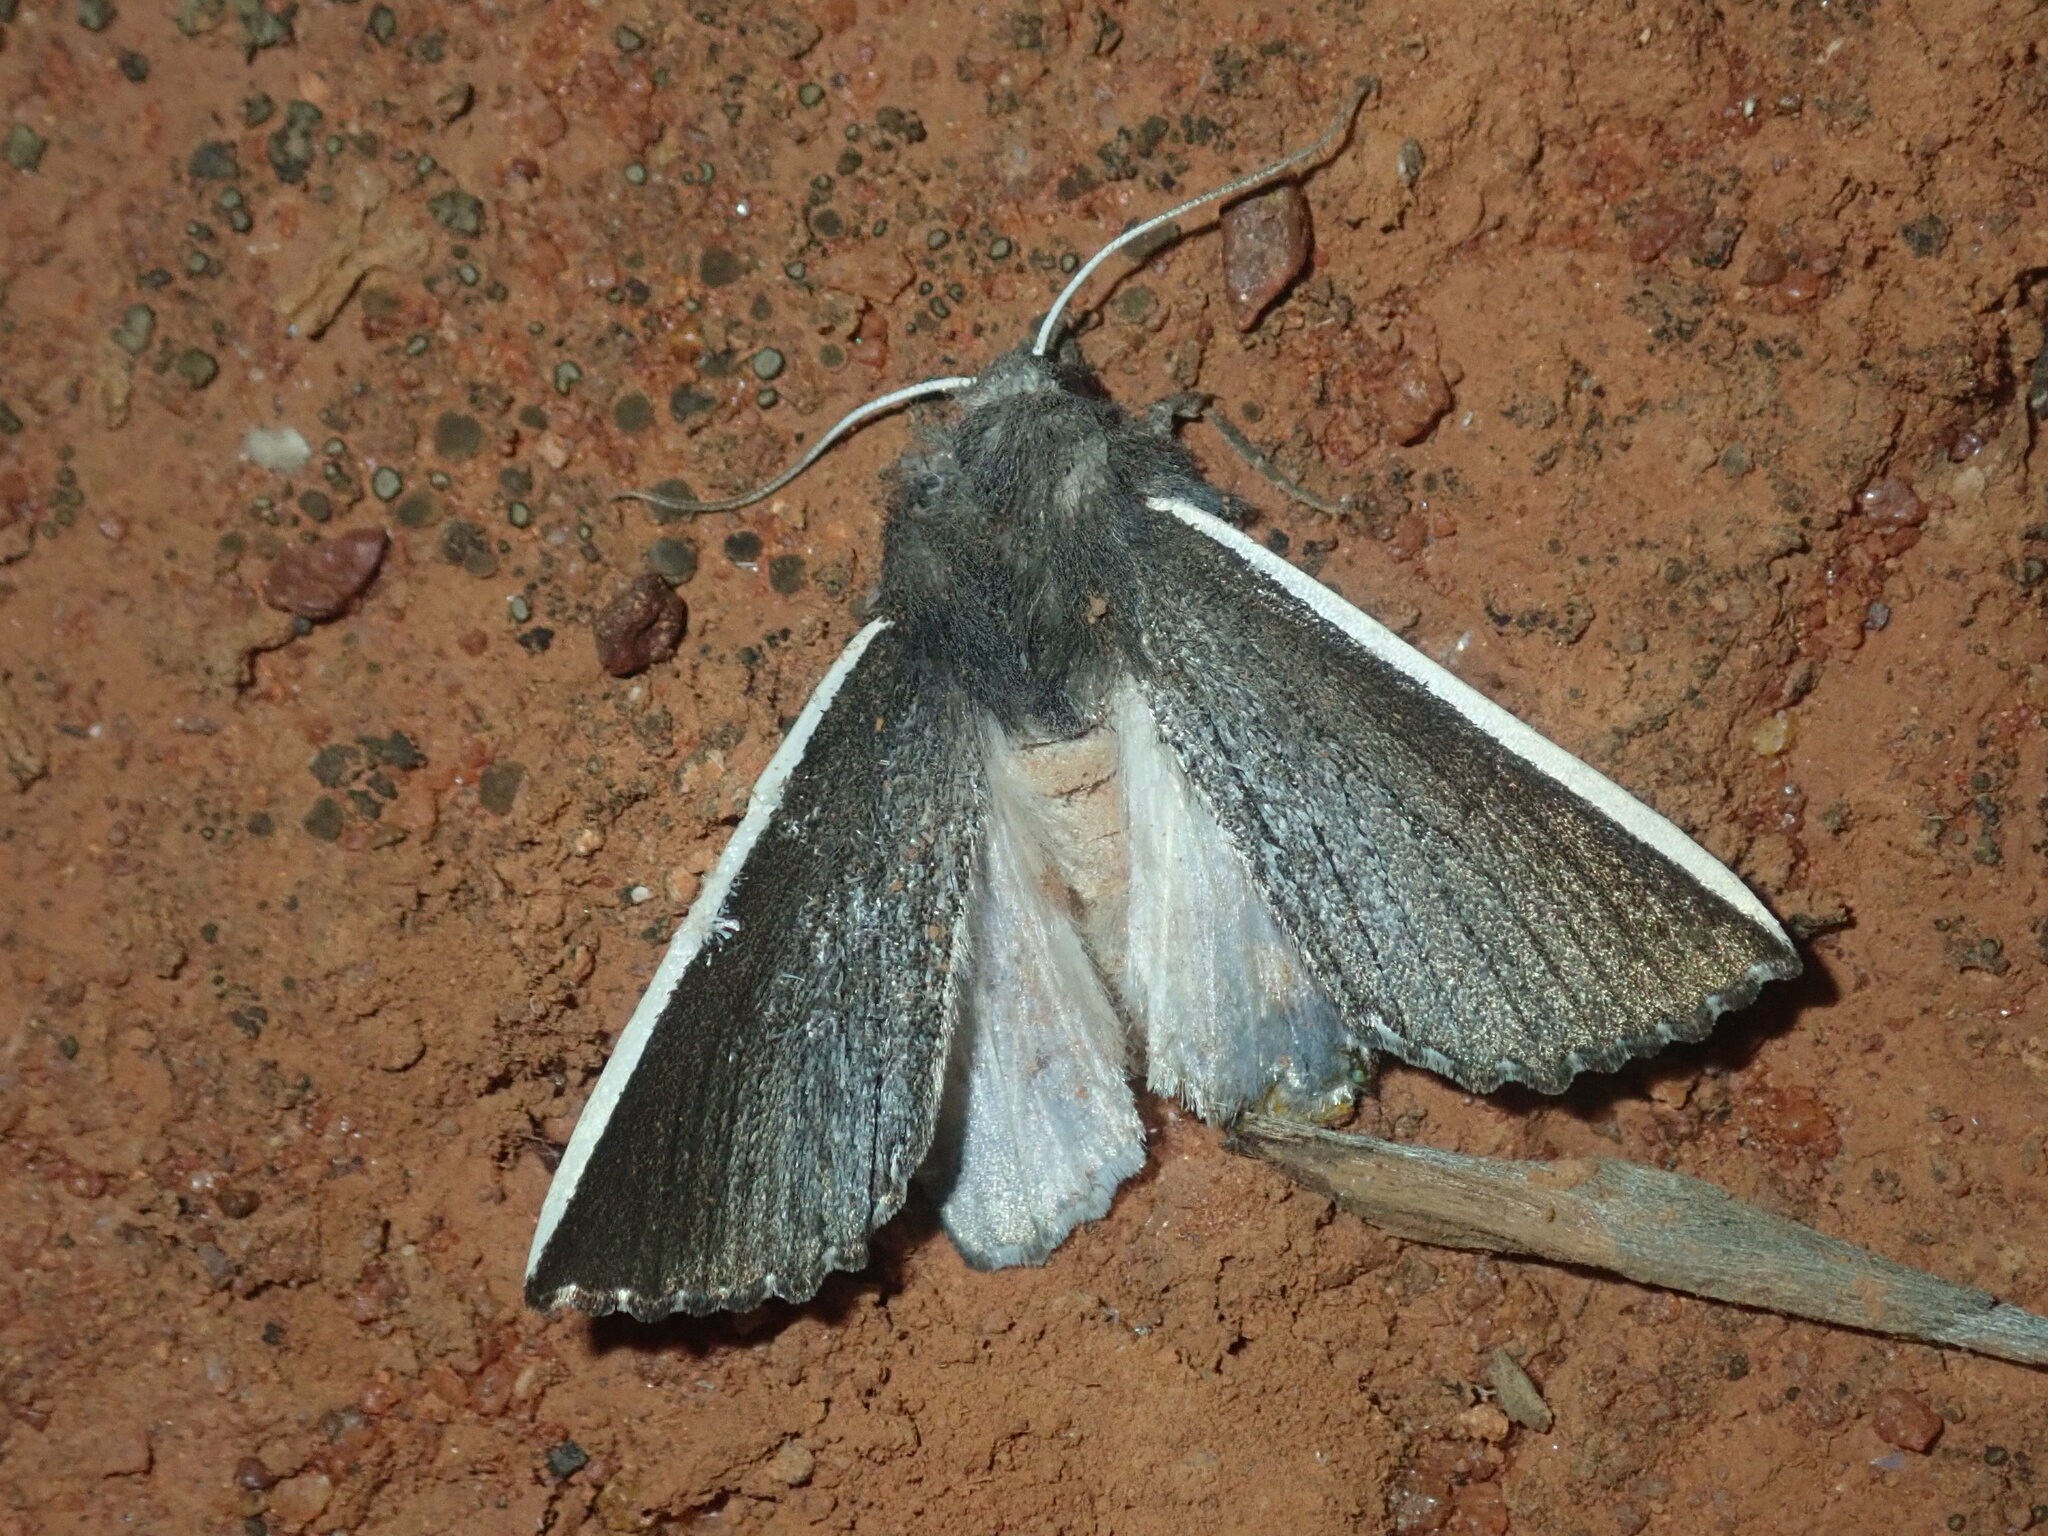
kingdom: Animalia
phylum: Arthropoda
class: Insecta
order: Lepidoptera
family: Geometridae
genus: Capusa
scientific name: Capusa chionopleura
